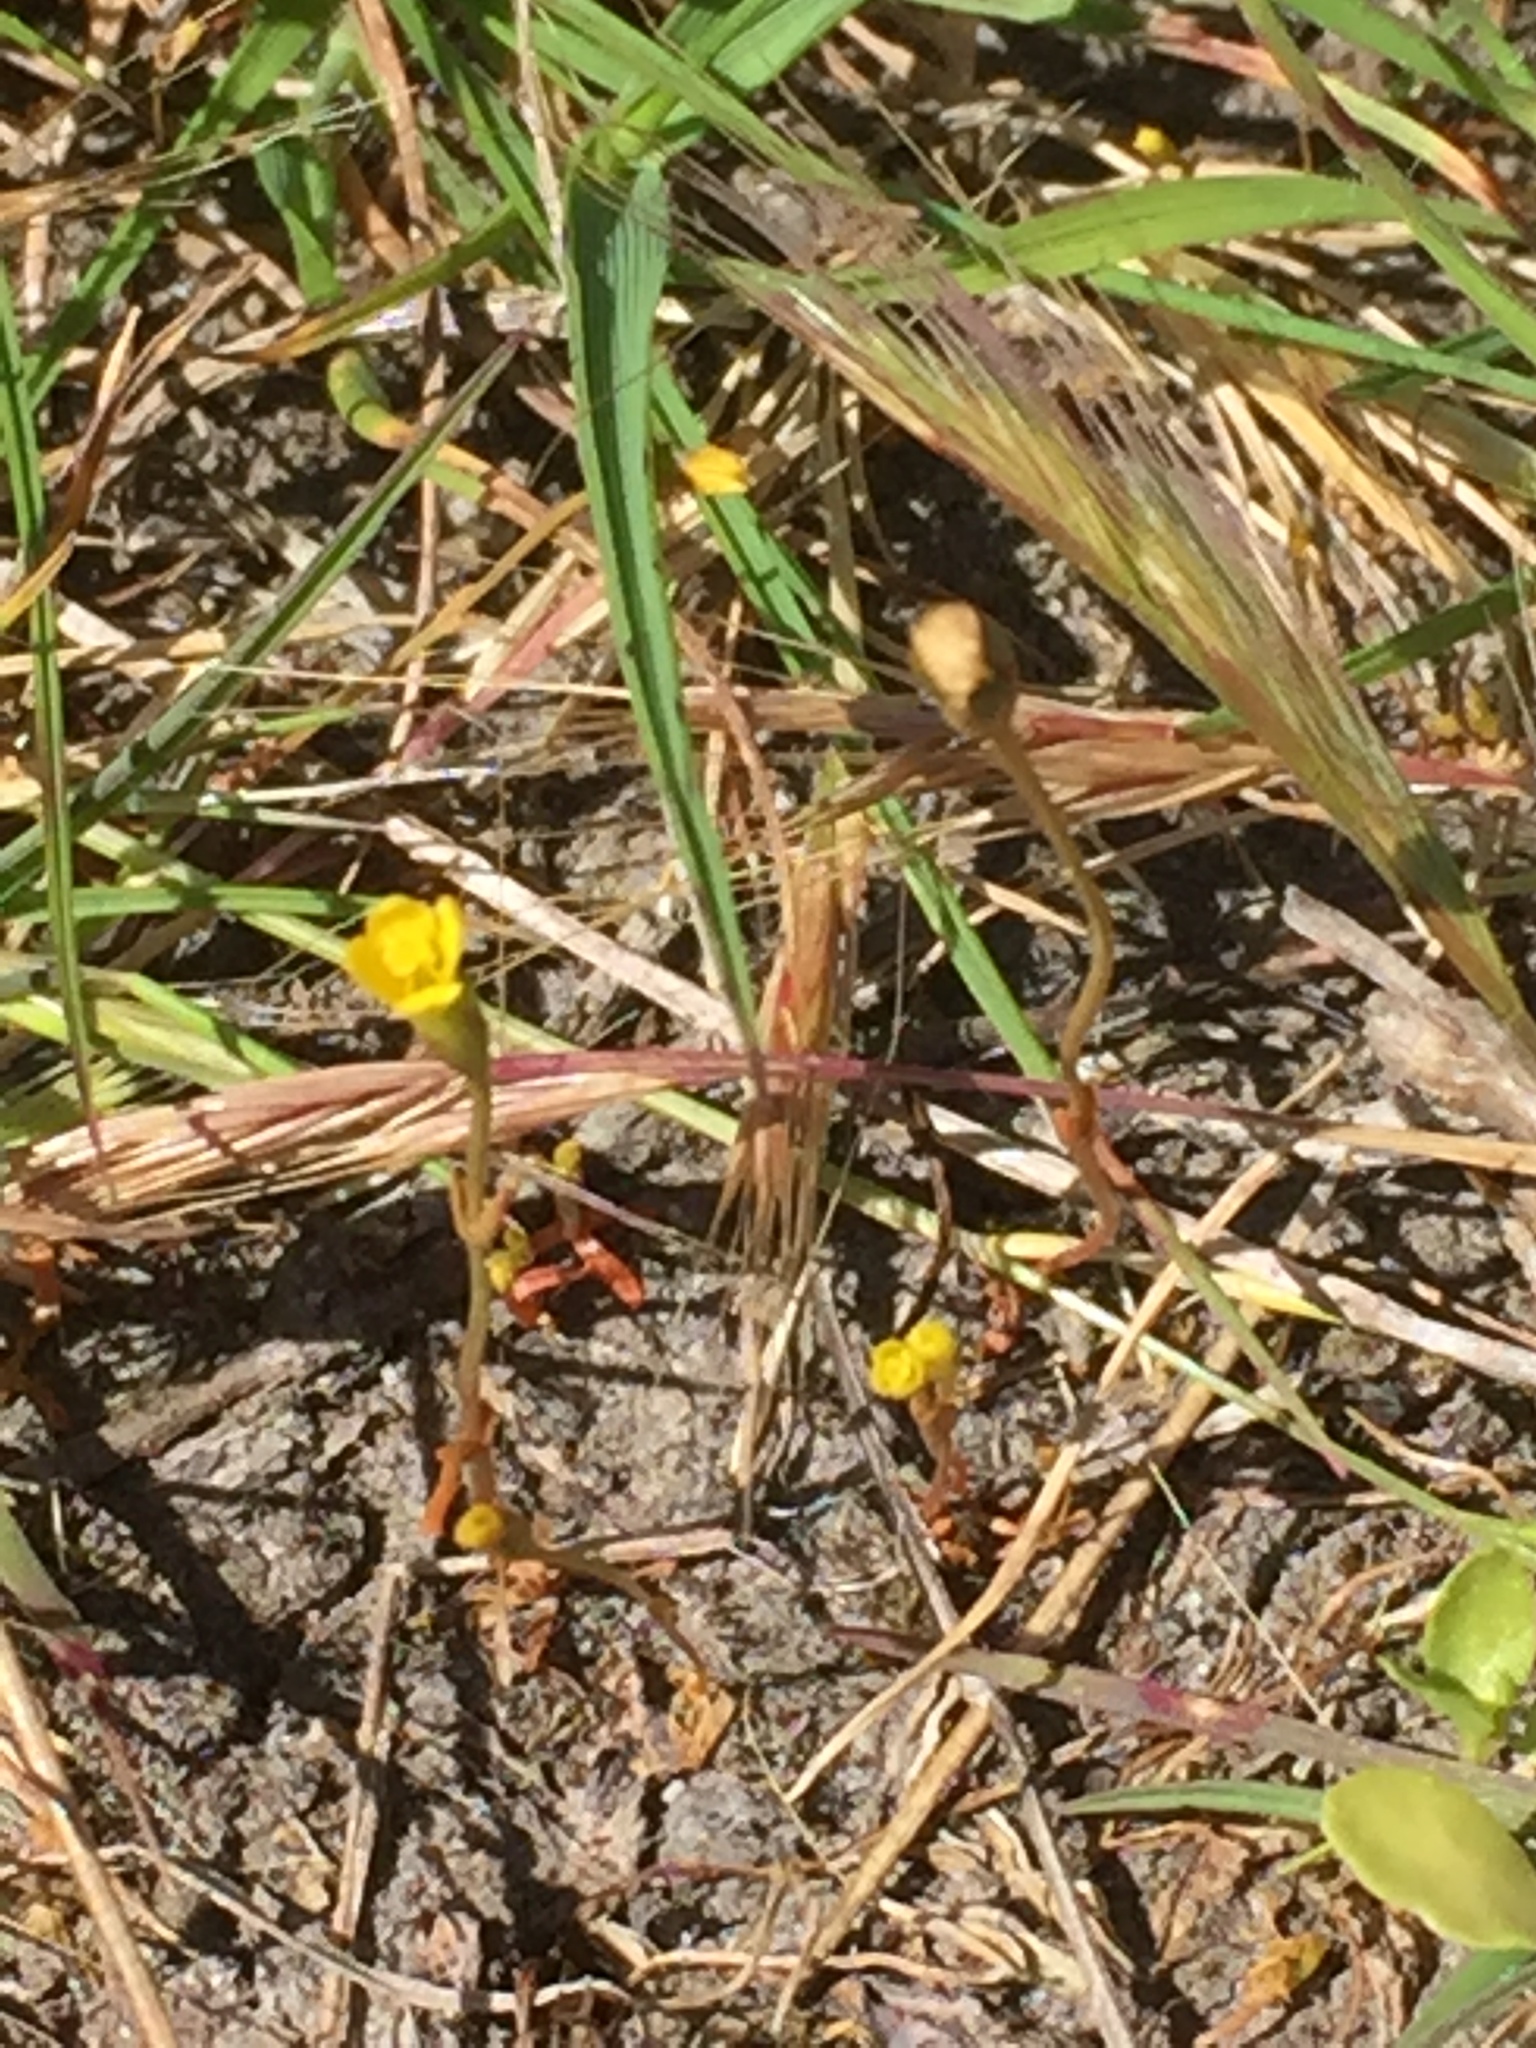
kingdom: Plantae
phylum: Tracheophyta
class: Magnoliopsida
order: Gentianales
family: Gentianaceae
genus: Cicendia
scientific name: Cicendia filiformis
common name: Yellow centaury
